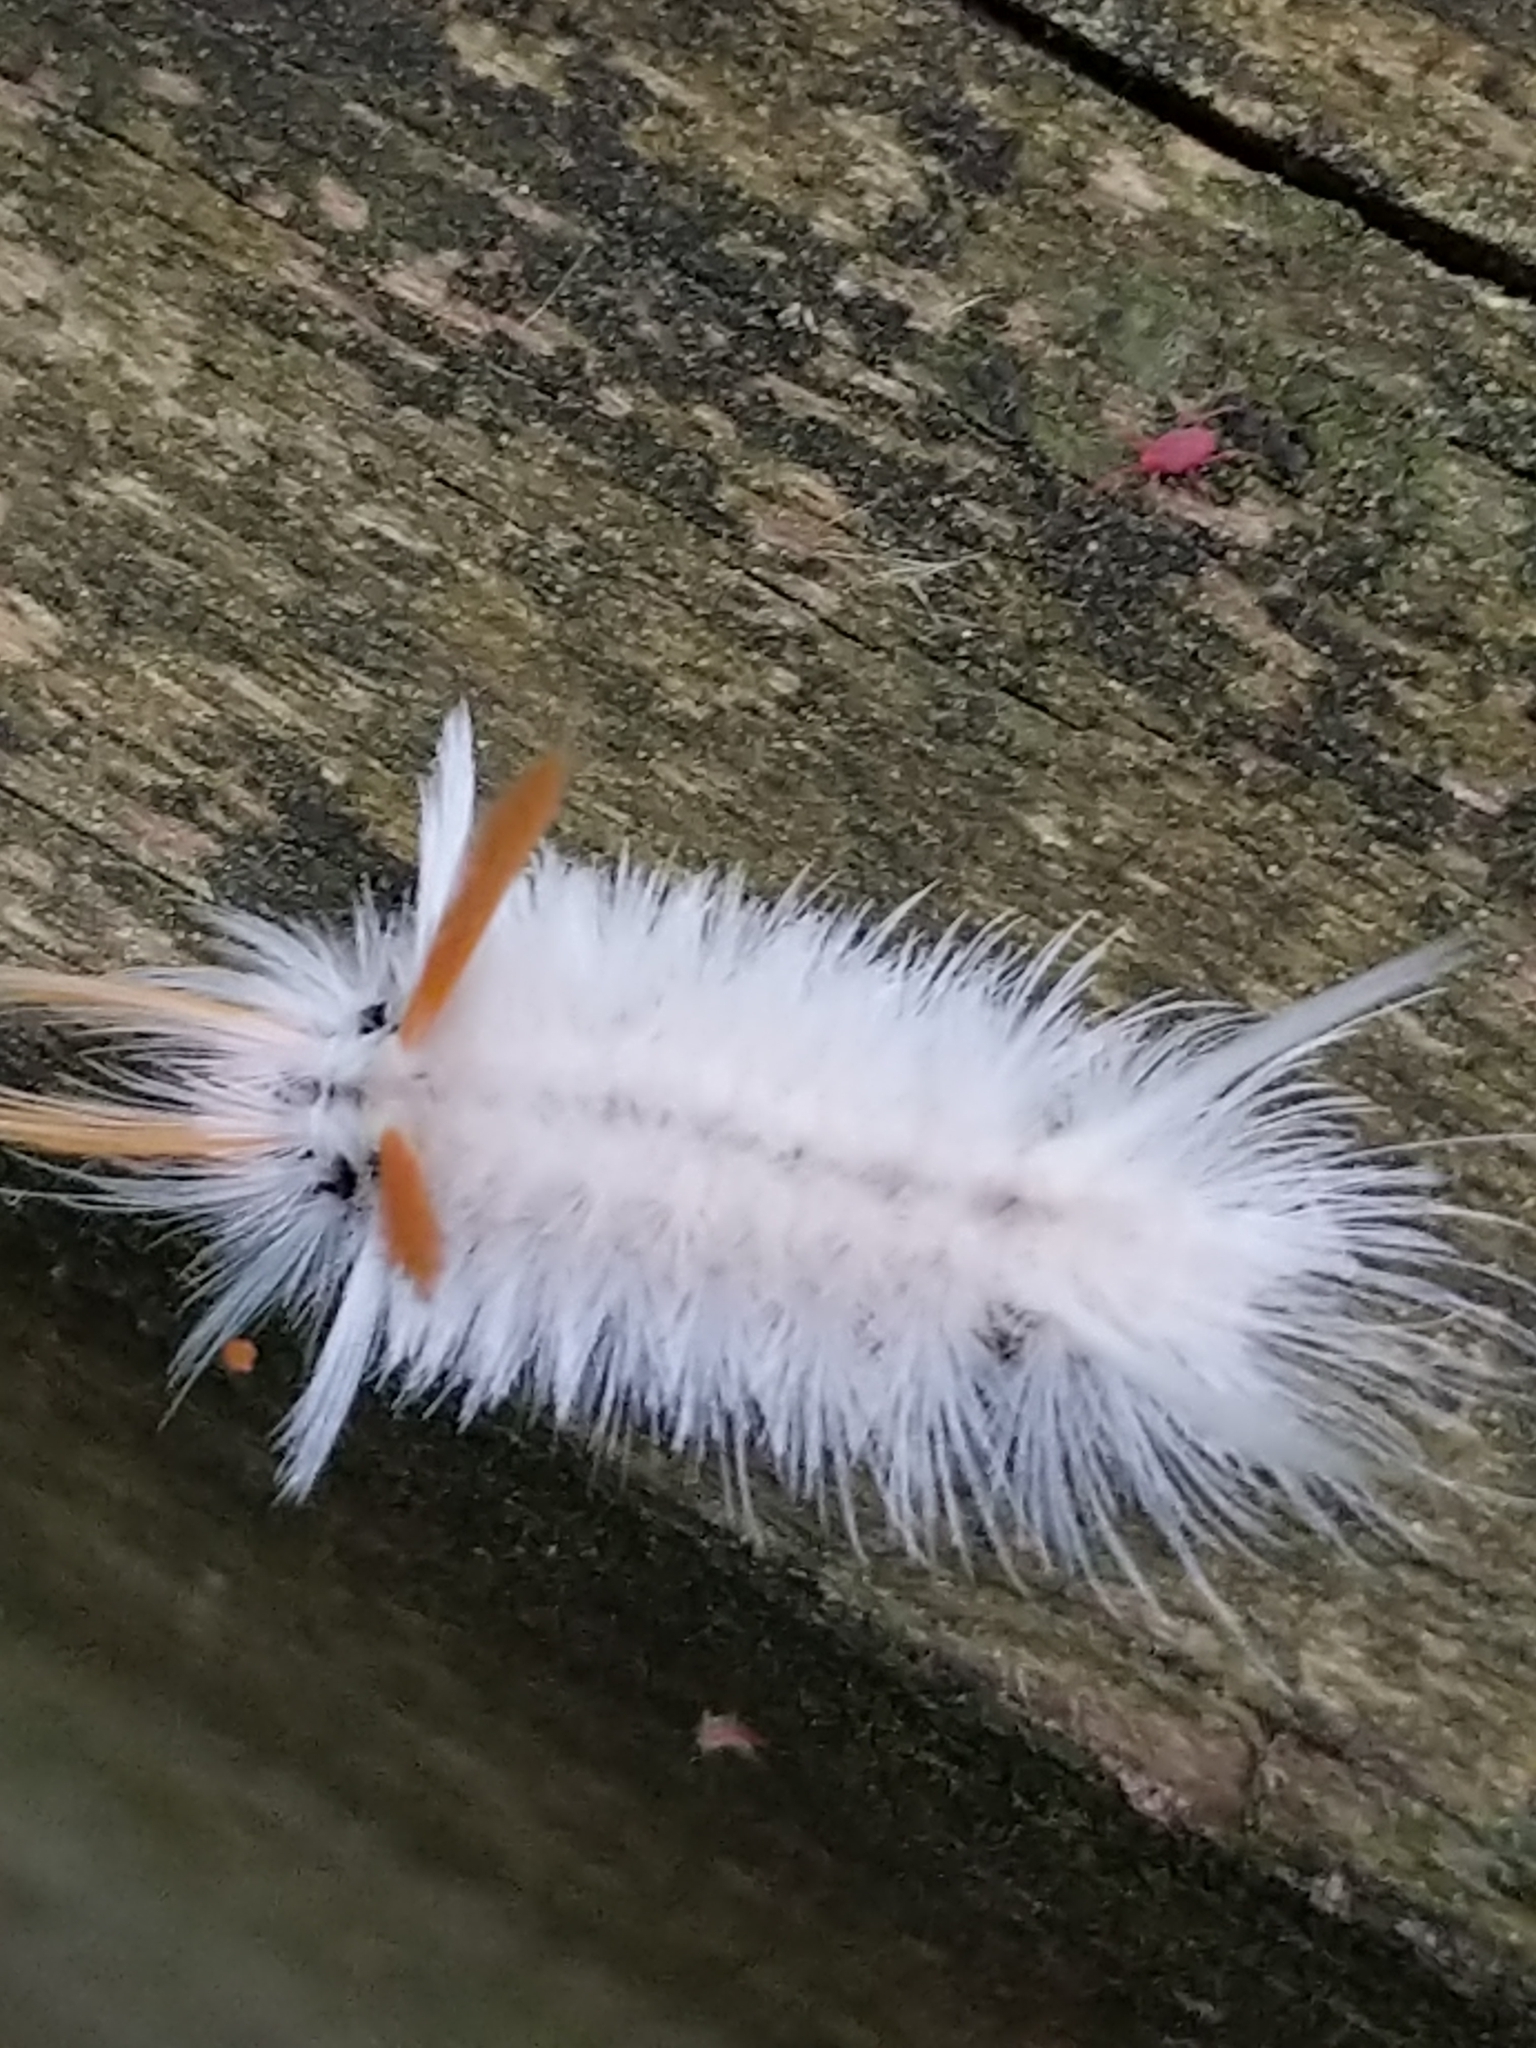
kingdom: Animalia
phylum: Arthropoda
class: Insecta
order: Lepidoptera
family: Erebidae
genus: Halysidota
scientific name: Halysidota harrisii
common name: Sycamore tussock moth
